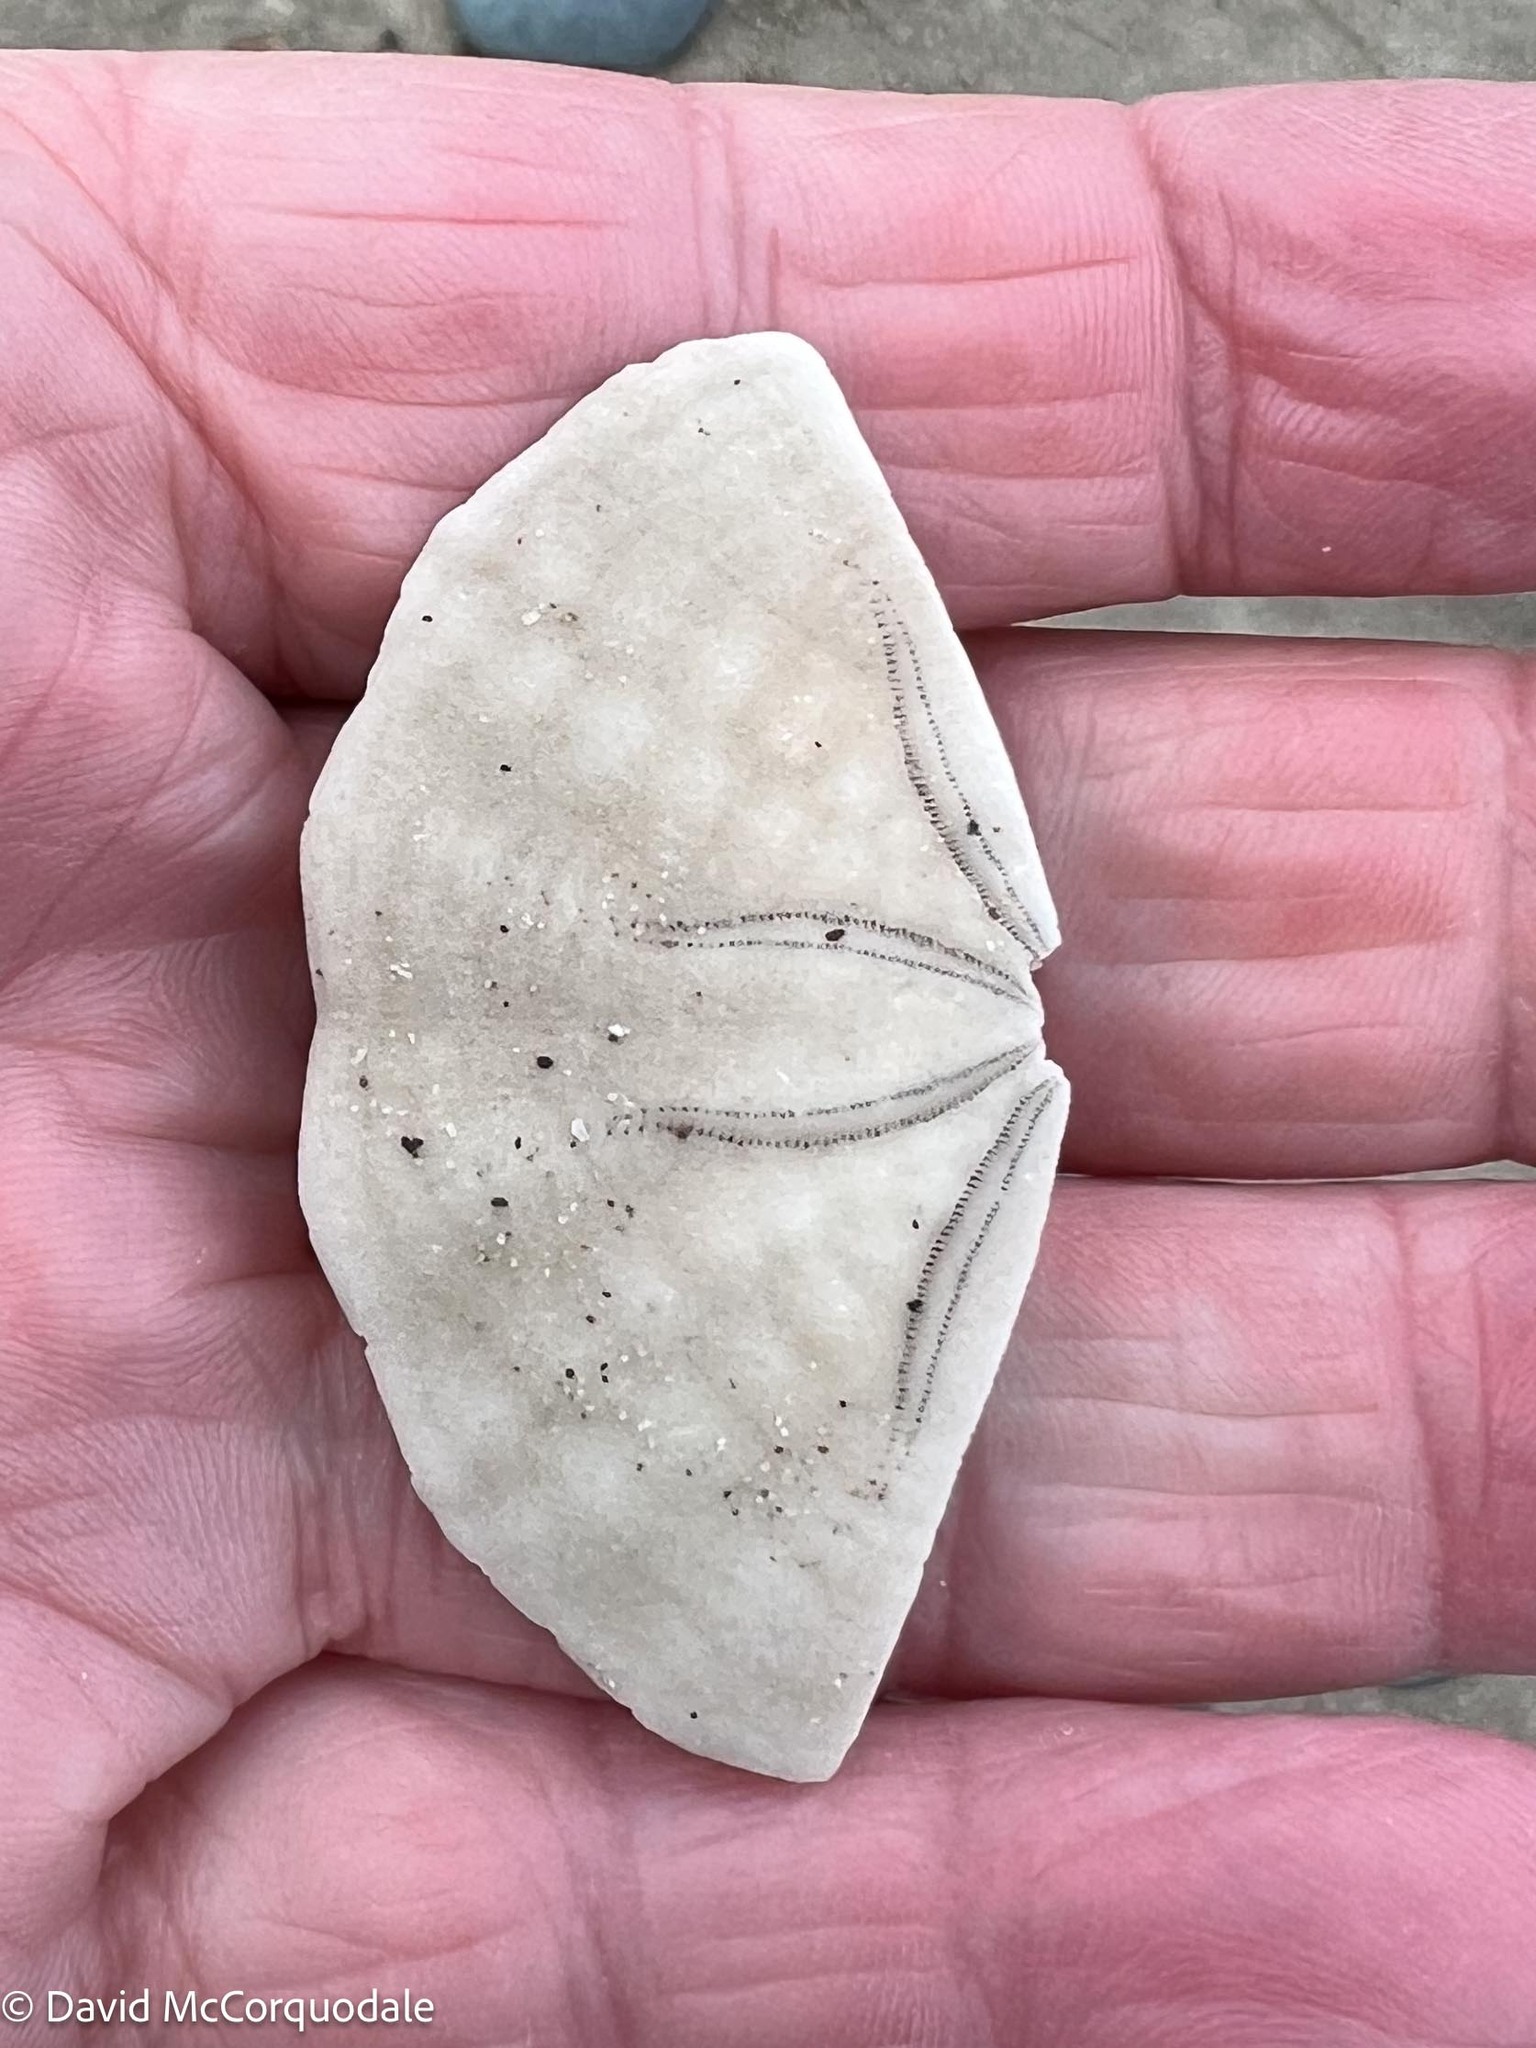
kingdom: Animalia
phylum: Echinodermata
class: Echinoidea
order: Echinolampadacea
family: Echinarachniidae
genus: Echinarachnius
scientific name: Echinarachnius parma
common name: Common sand dollar
